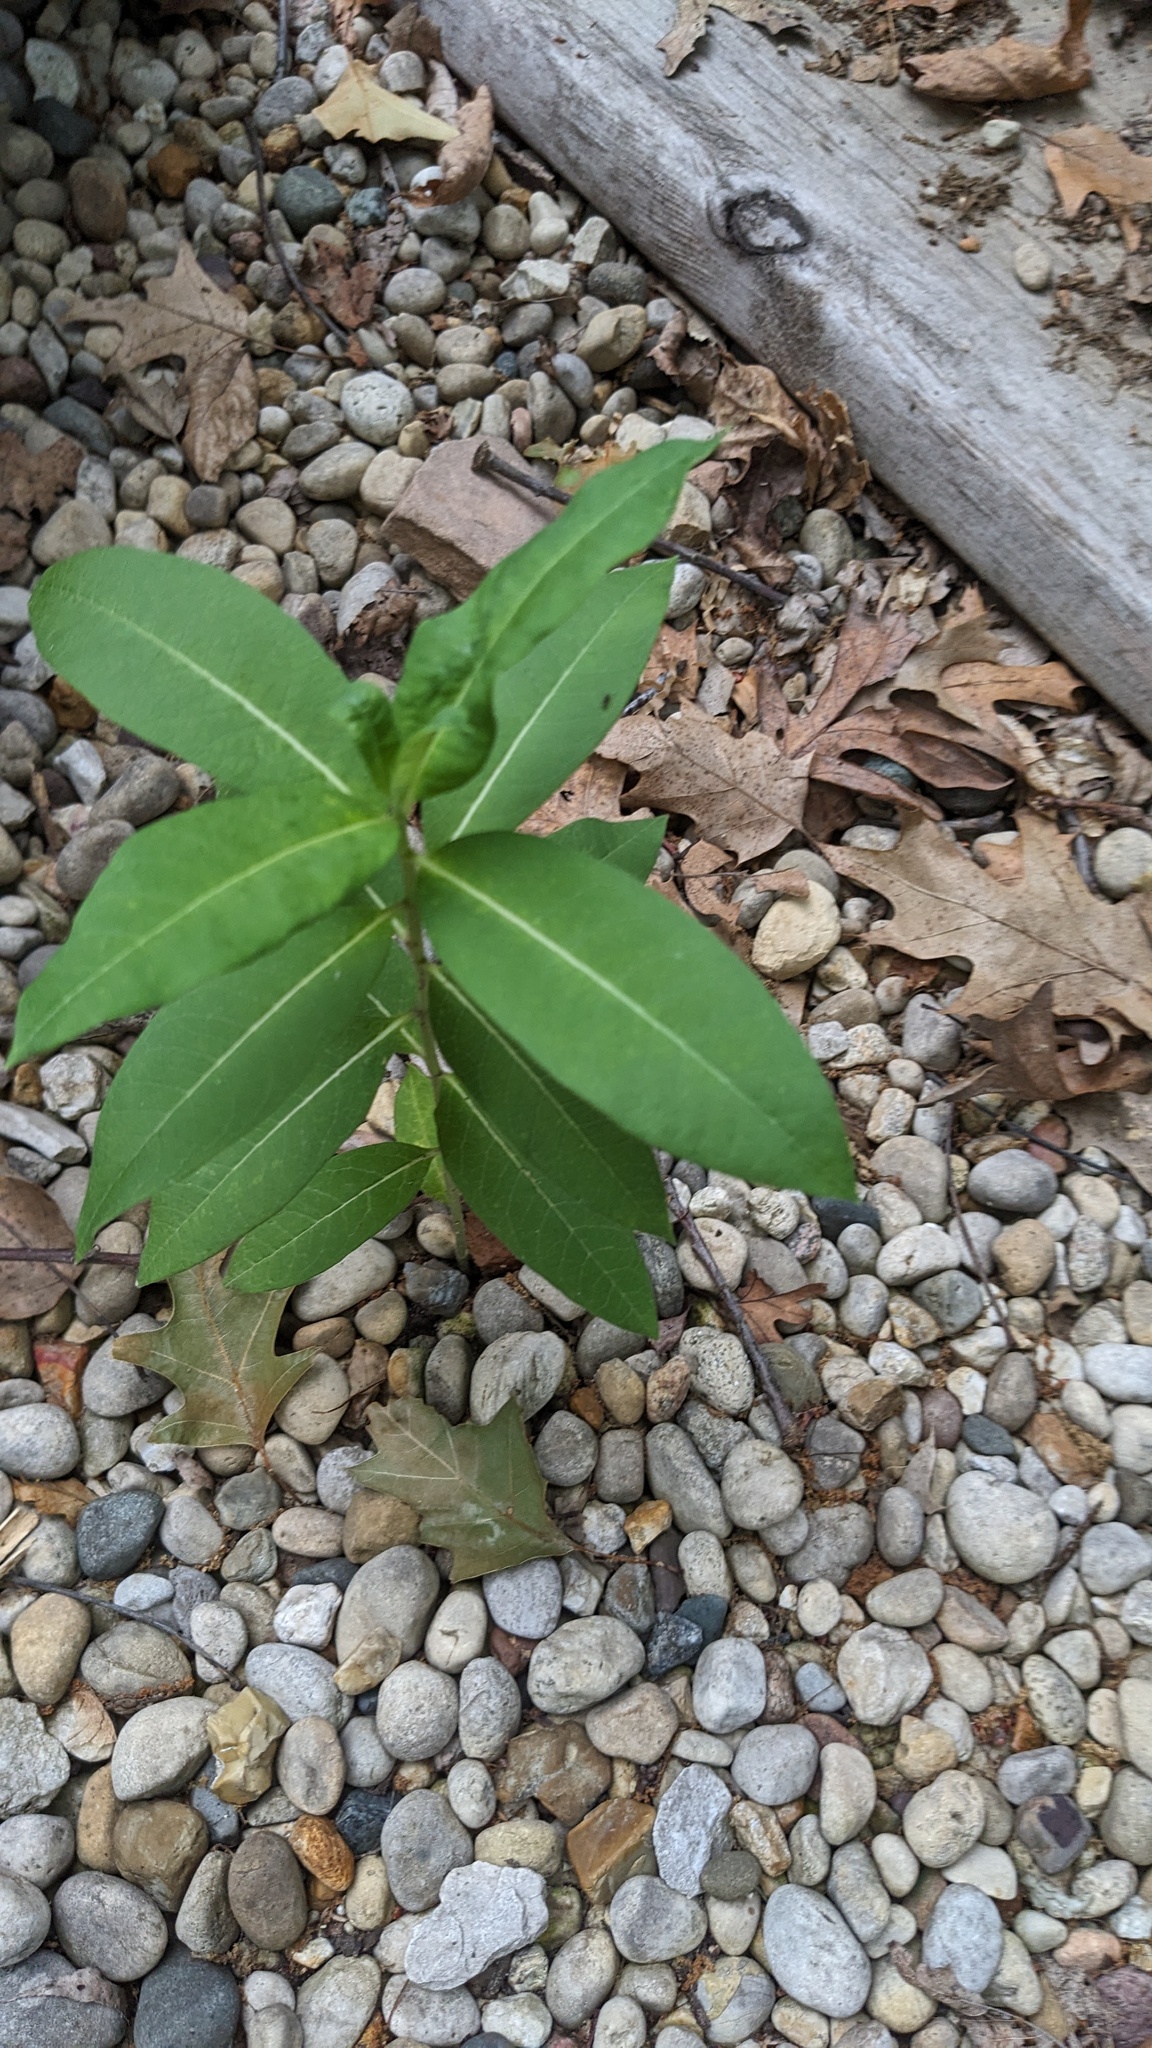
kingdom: Plantae
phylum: Tracheophyta
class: Magnoliopsida
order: Gentianales
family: Apocynaceae
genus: Asclepias
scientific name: Asclepias syriaca
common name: Common milkweed
